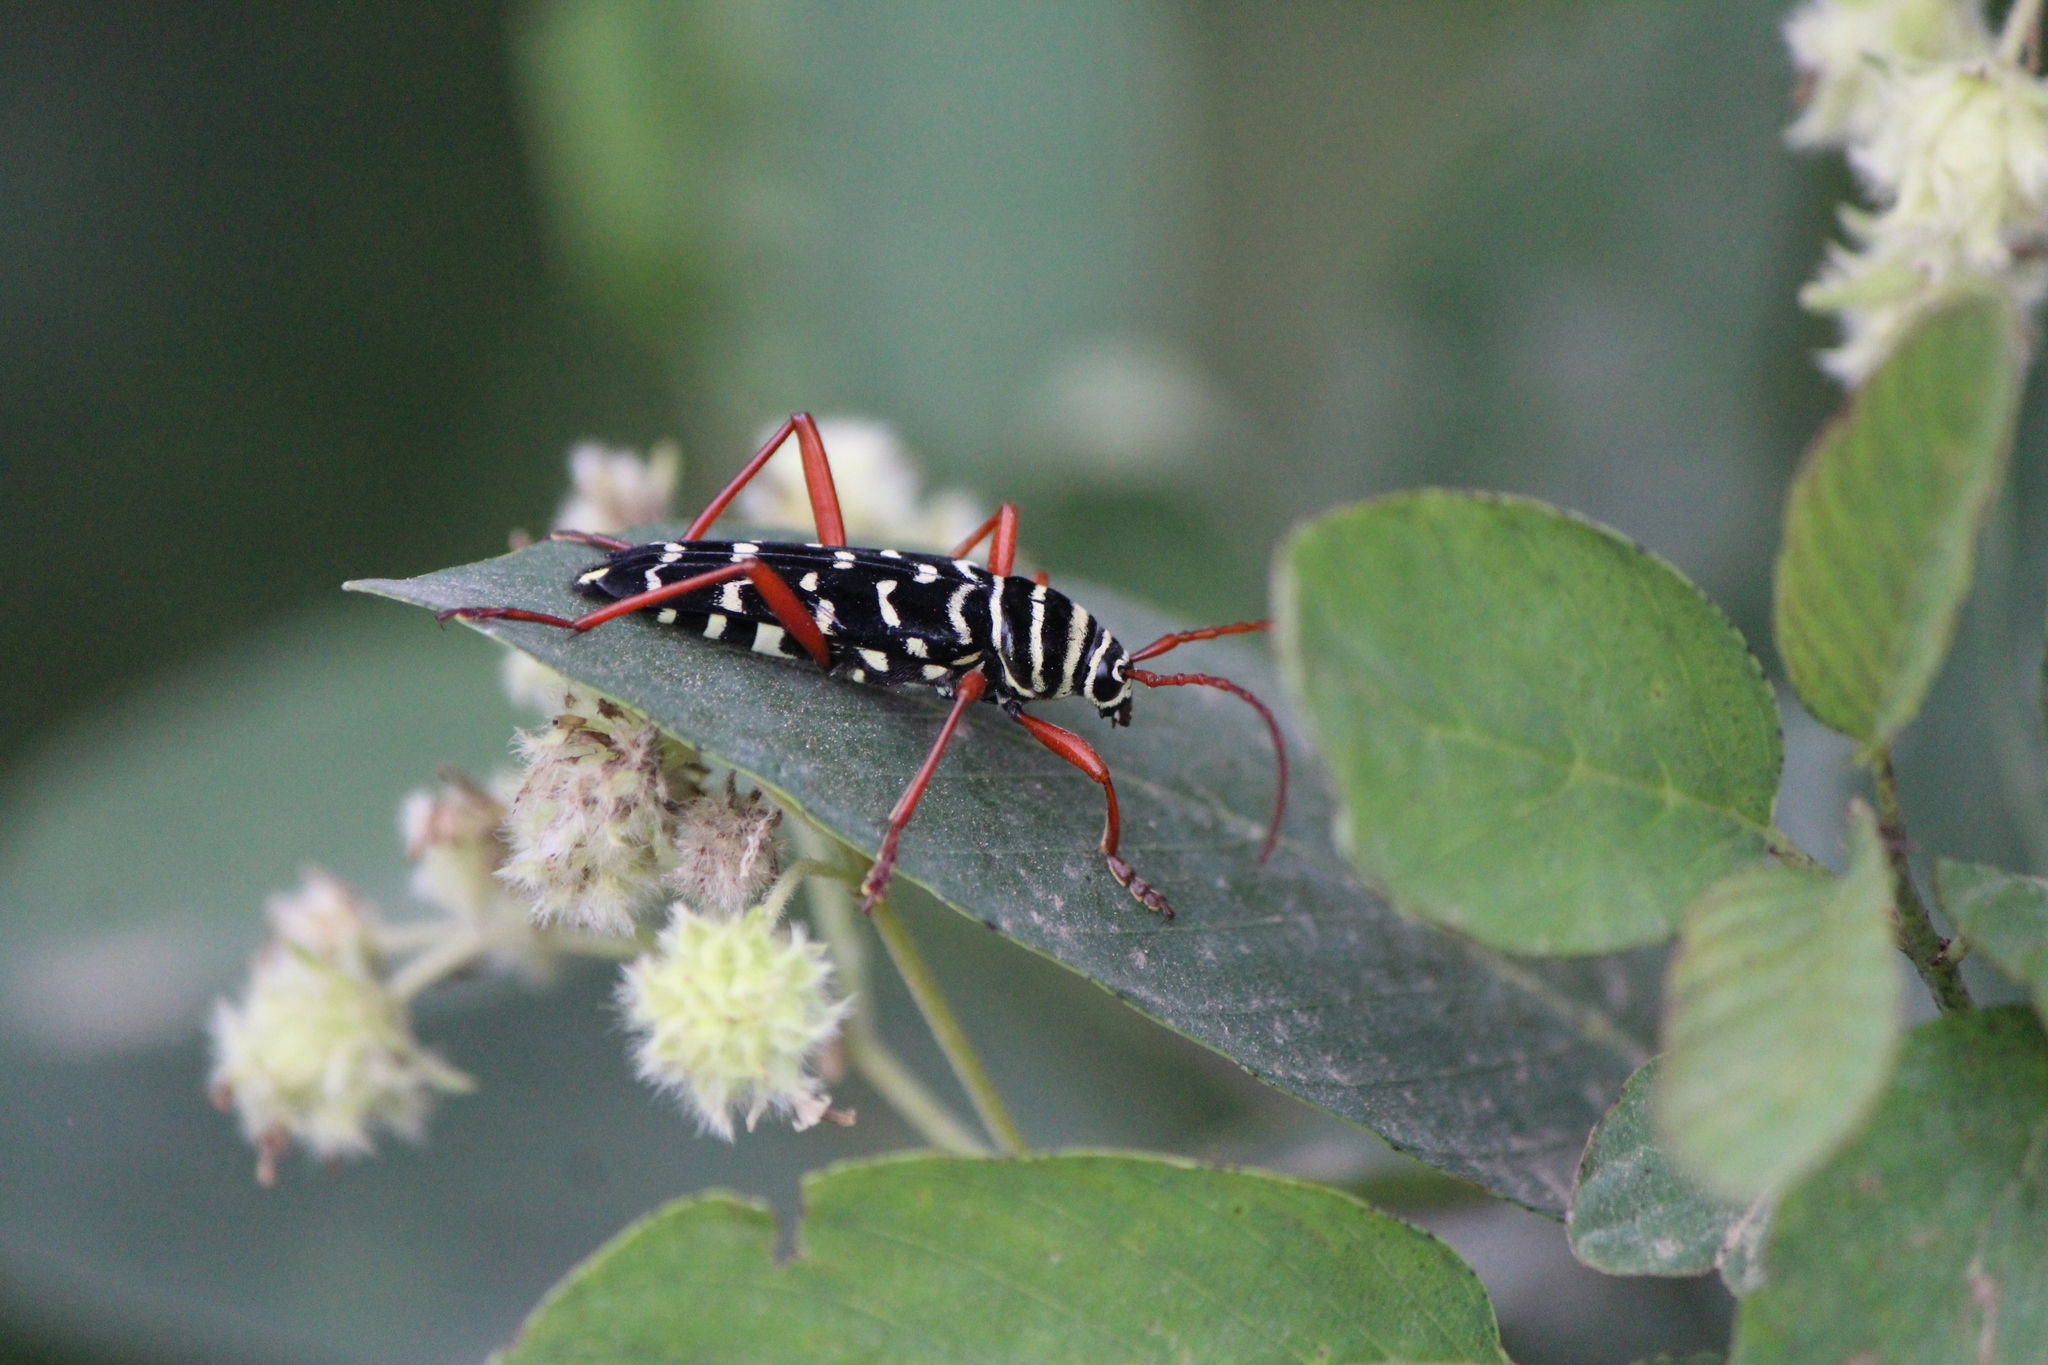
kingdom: Animalia
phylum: Arthropoda
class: Insecta
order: Coleoptera
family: Cerambycidae
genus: Placosternus
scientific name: Placosternus difficilis
